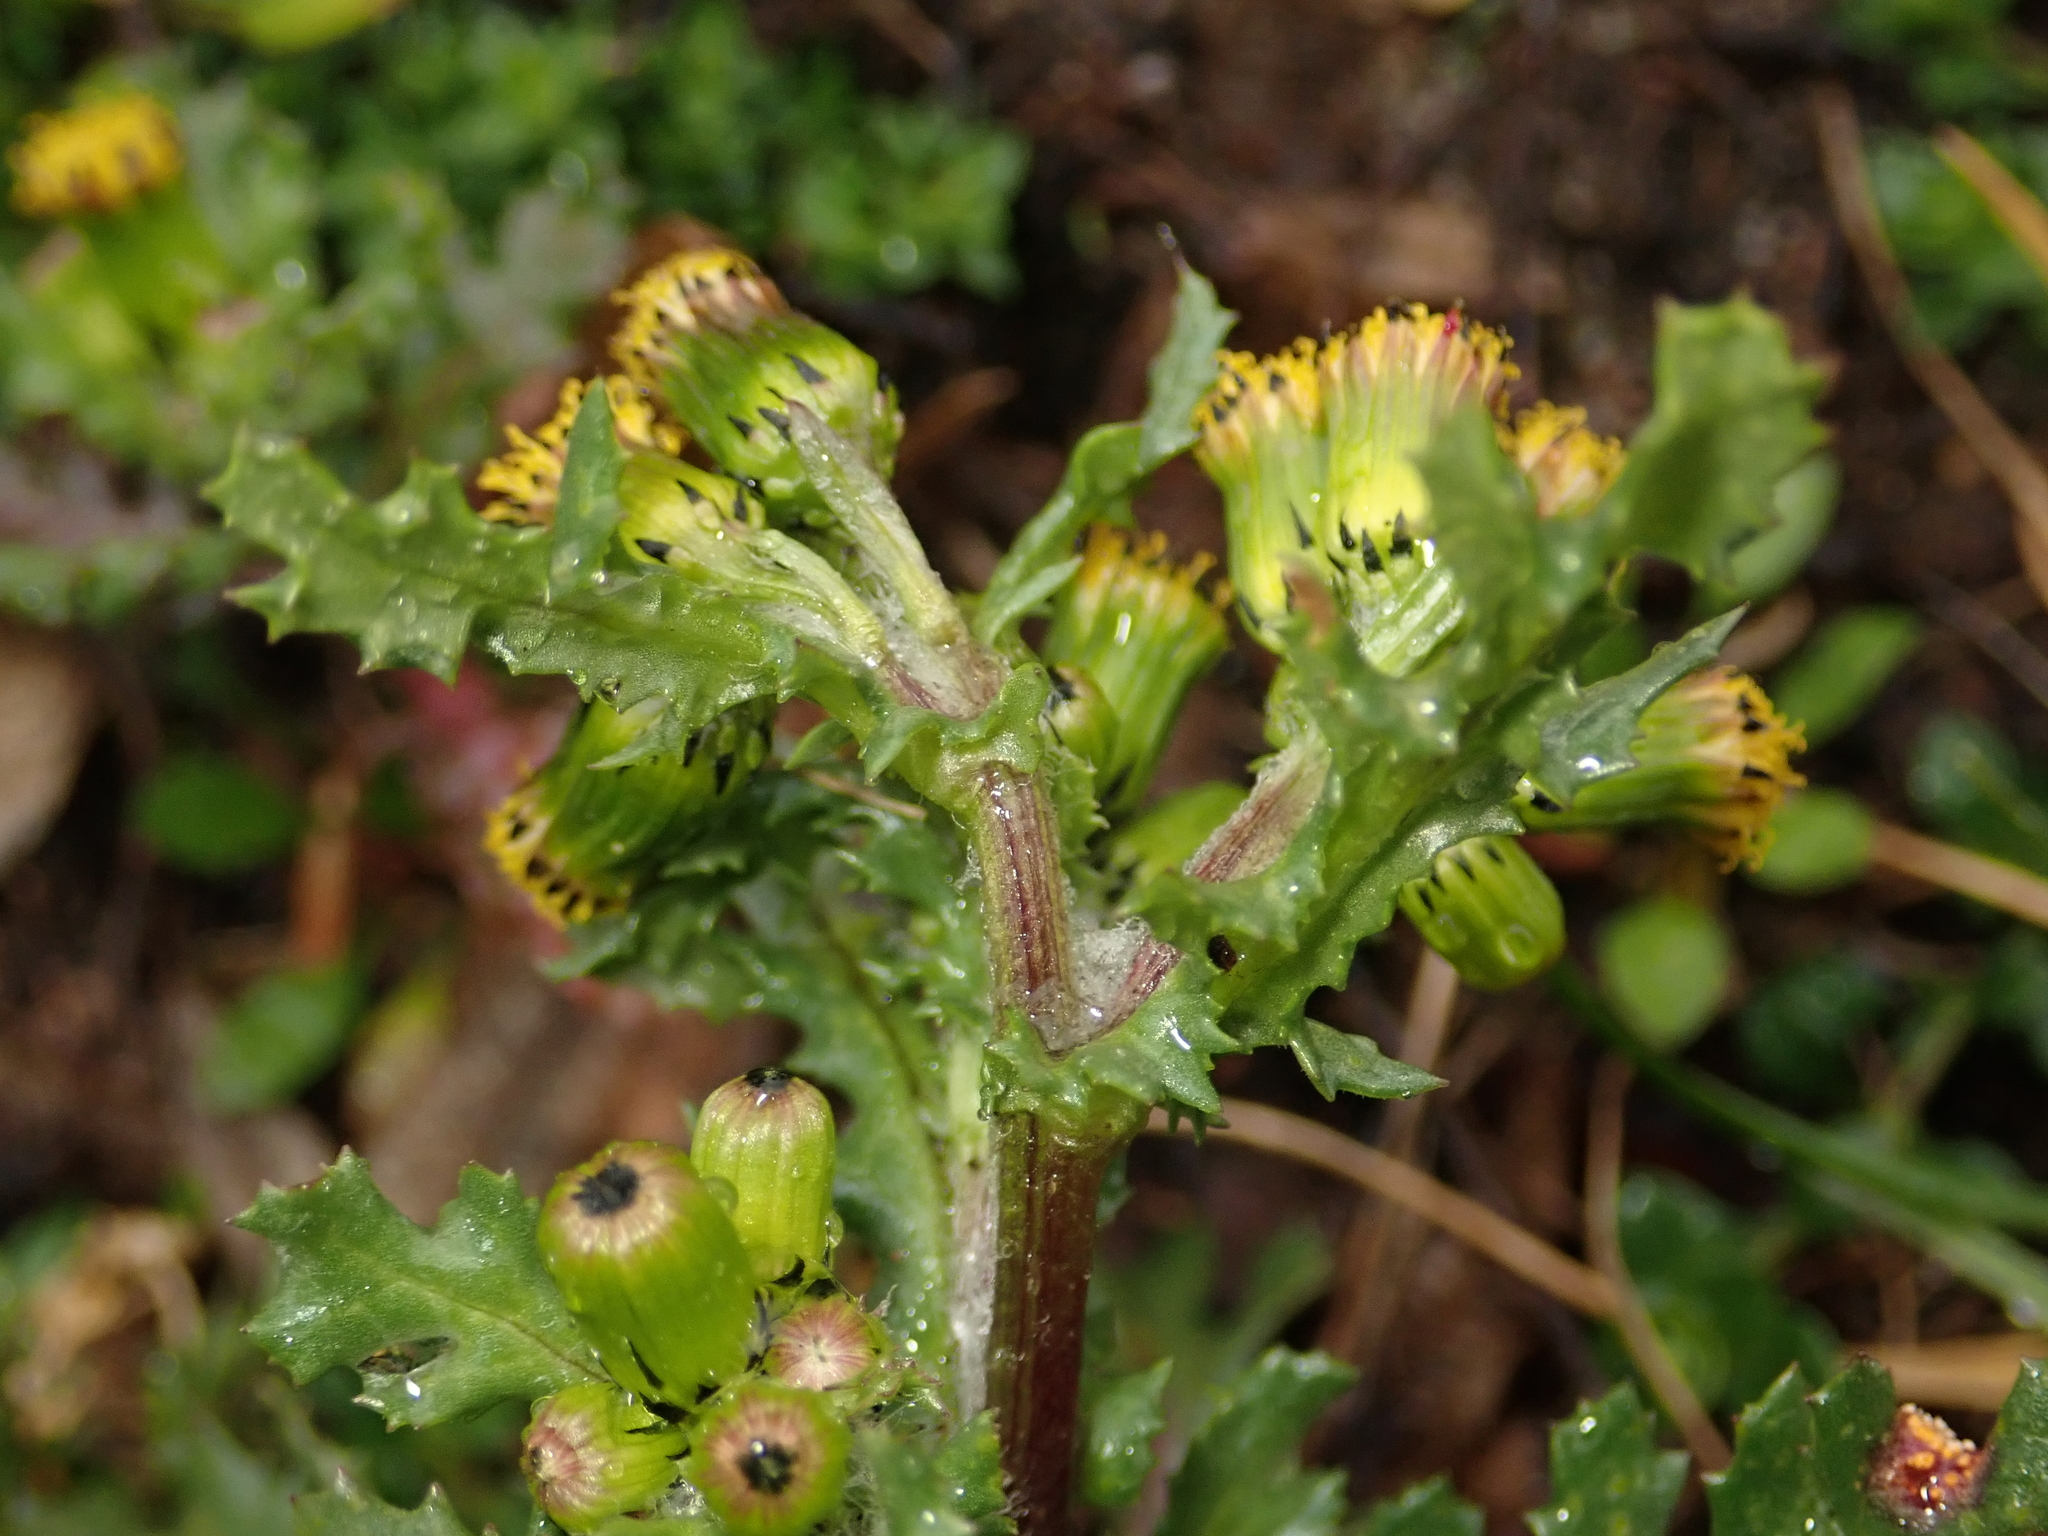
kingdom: Plantae
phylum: Tracheophyta
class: Magnoliopsida
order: Asterales
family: Asteraceae
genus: Senecio
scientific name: Senecio vulgaris
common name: Old-man-in-the-spring
